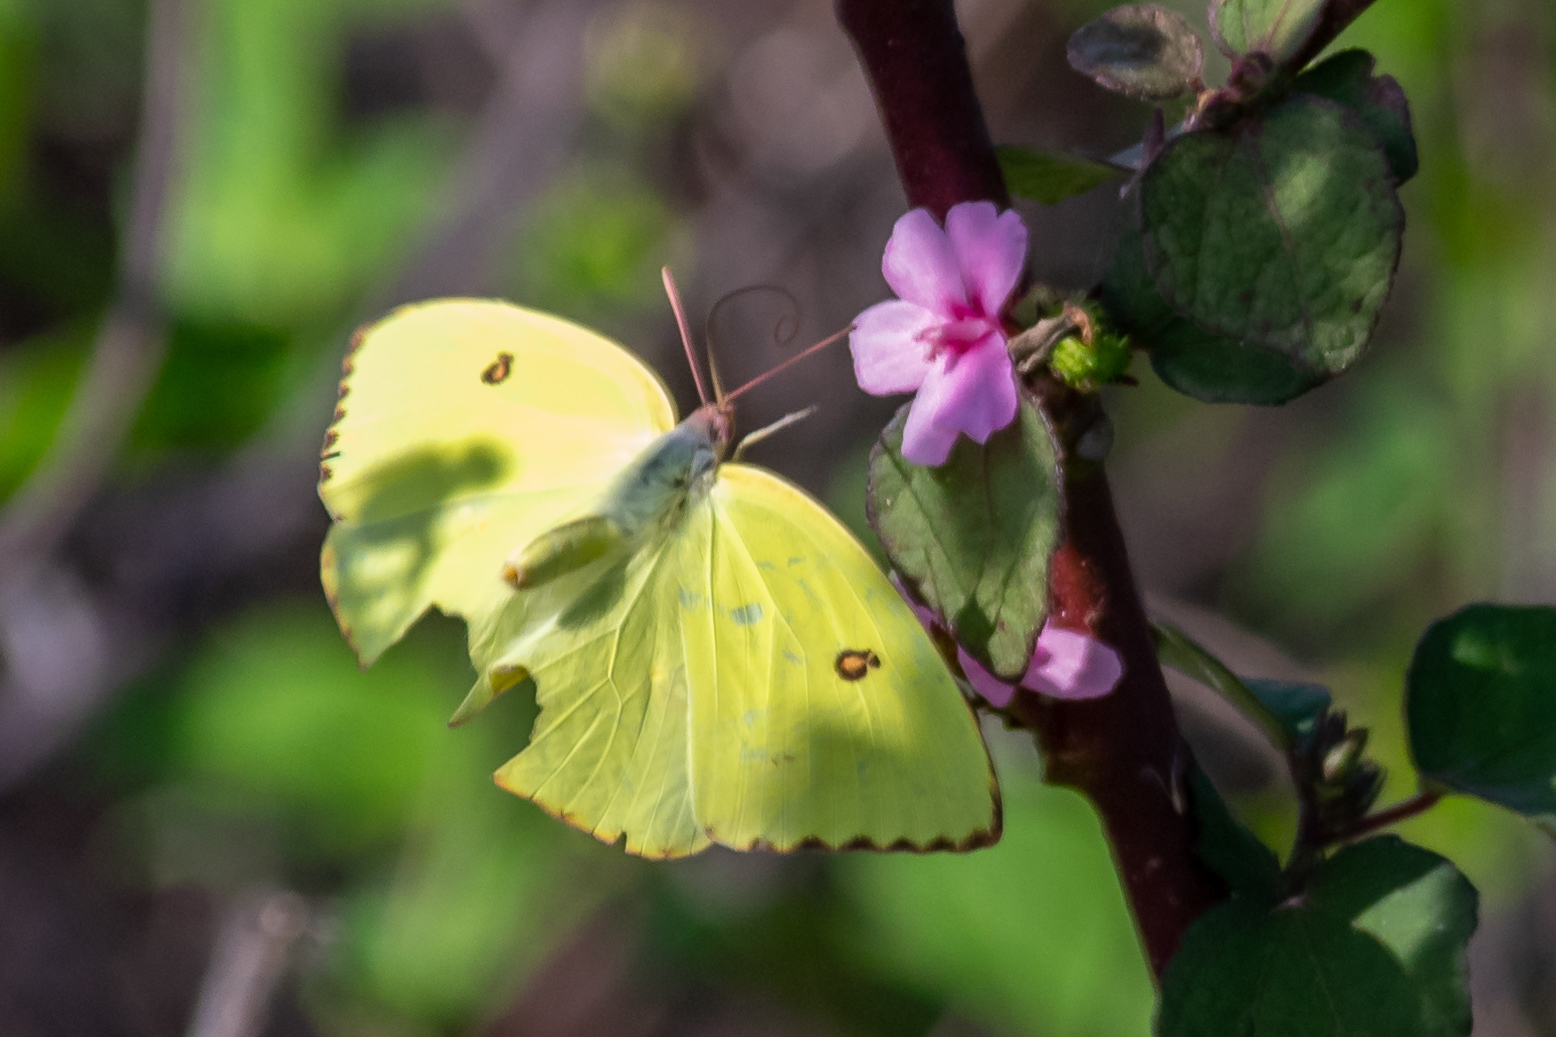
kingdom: Animalia
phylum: Arthropoda
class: Insecta
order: Lepidoptera
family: Pieridae
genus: Phoebis
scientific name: Phoebis sennae
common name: Cloudless sulphur
